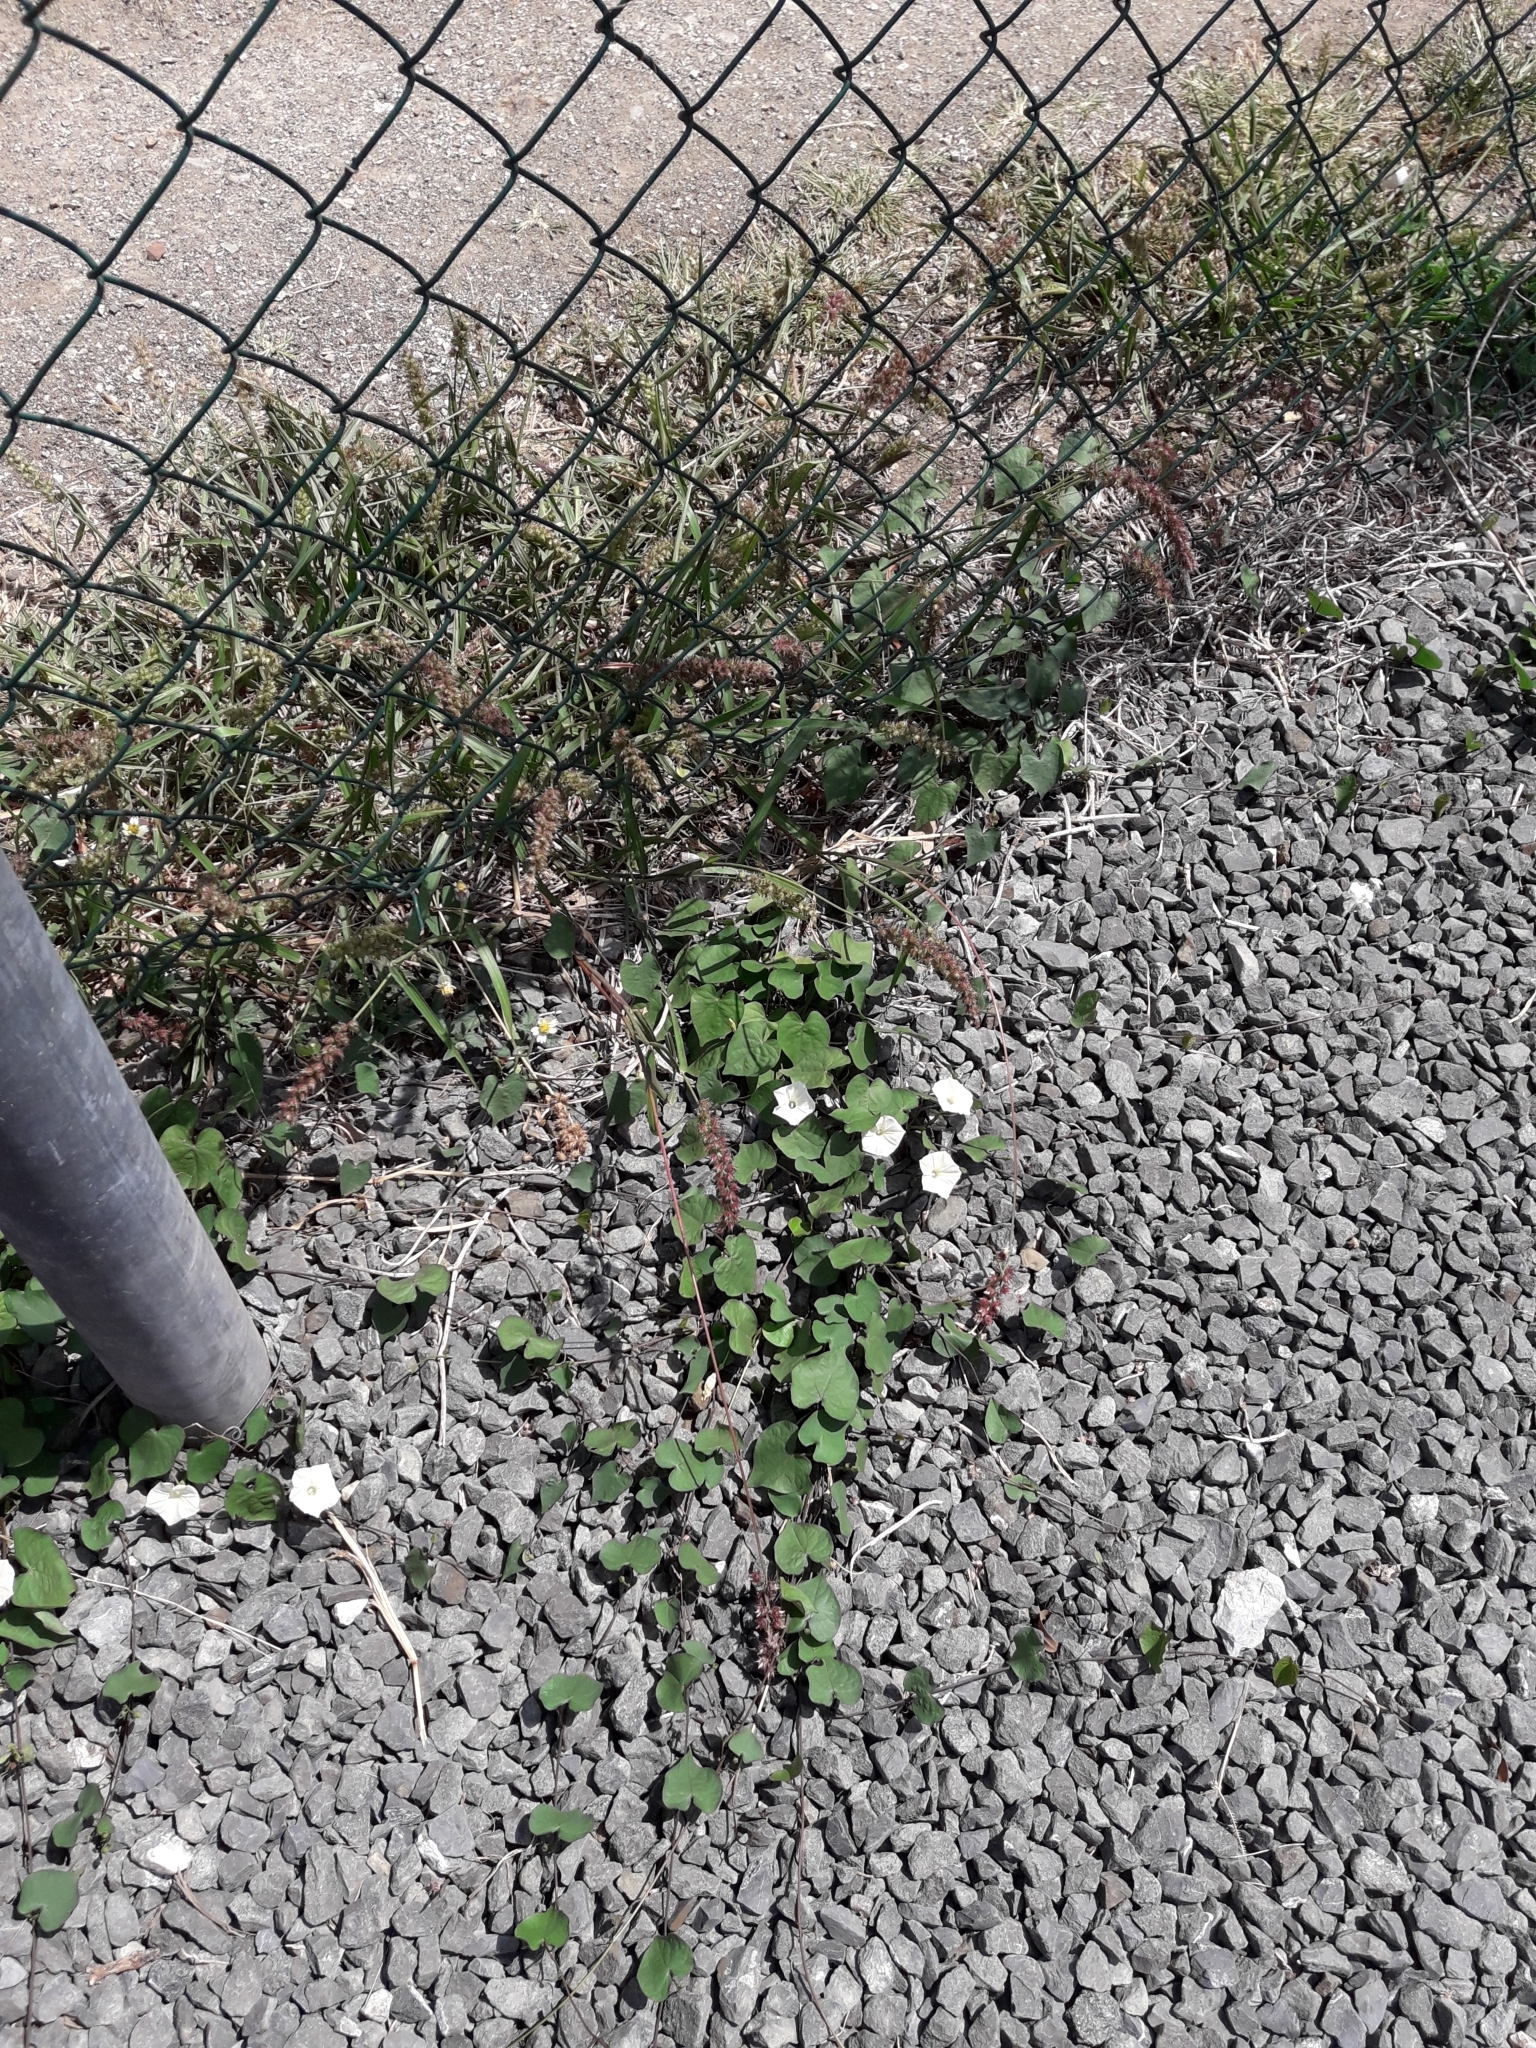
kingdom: Plantae
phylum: Tracheophyta
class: Magnoliopsida
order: Solanales
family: Convolvulaceae
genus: Ipomoea
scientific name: Ipomoea obscura
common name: Obscure morning-glory
